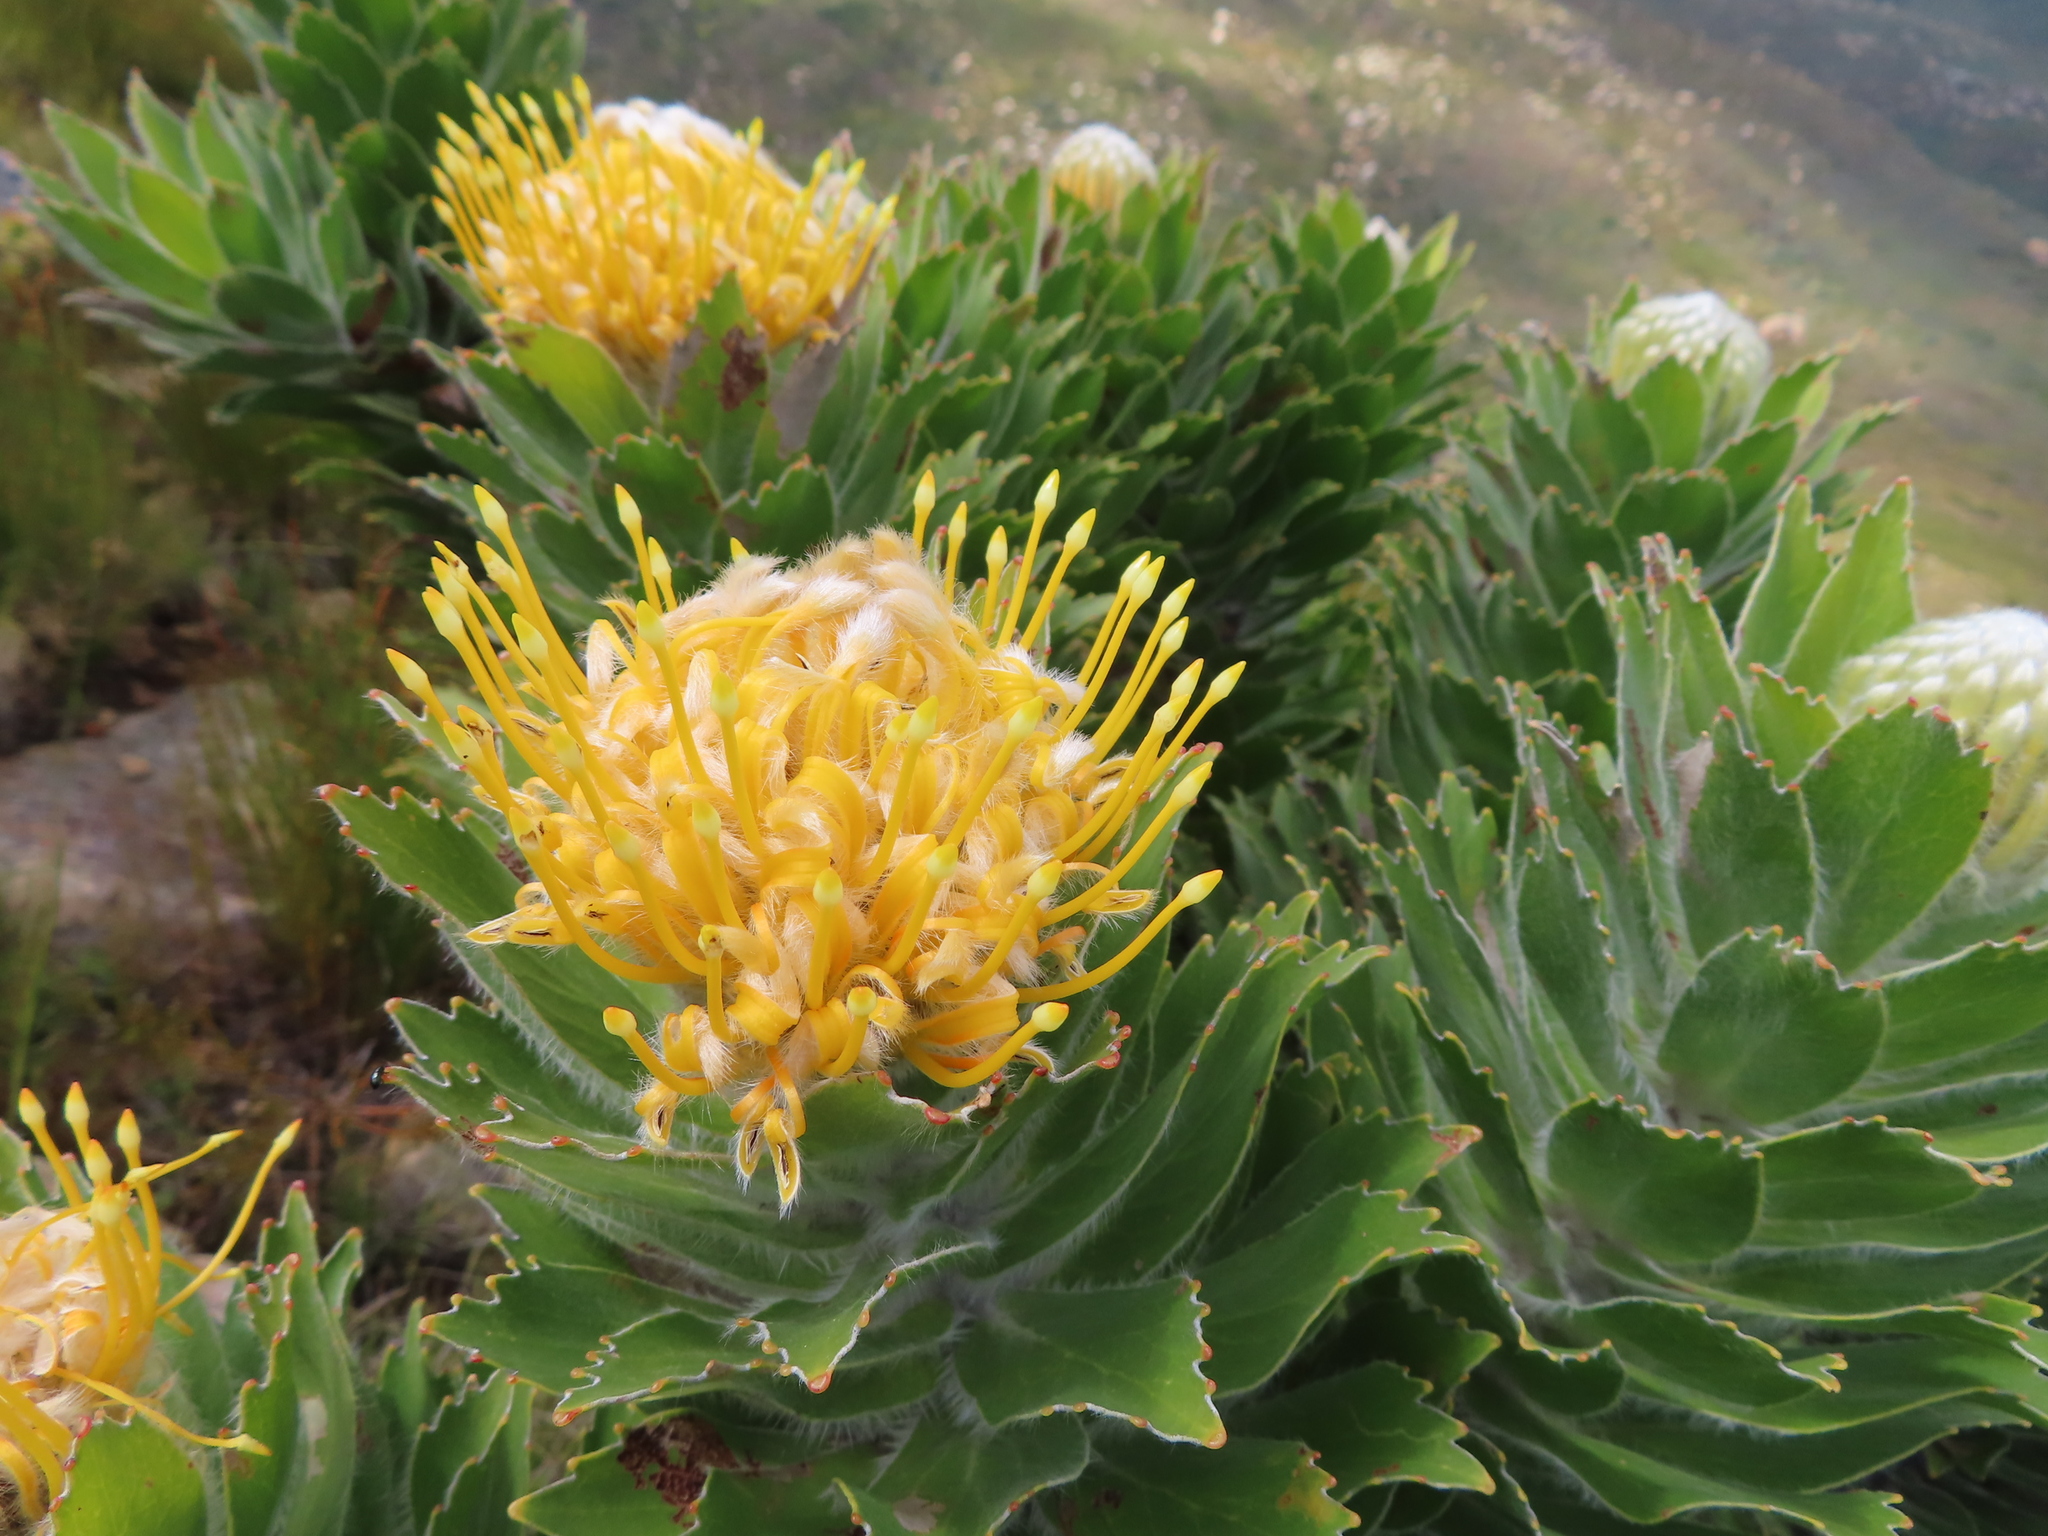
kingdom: Plantae
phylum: Tracheophyta
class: Magnoliopsida
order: Proteales
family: Proteaceae
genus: Leucospermum
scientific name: Leucospermum conocarpodendron
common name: Tree pincushion
